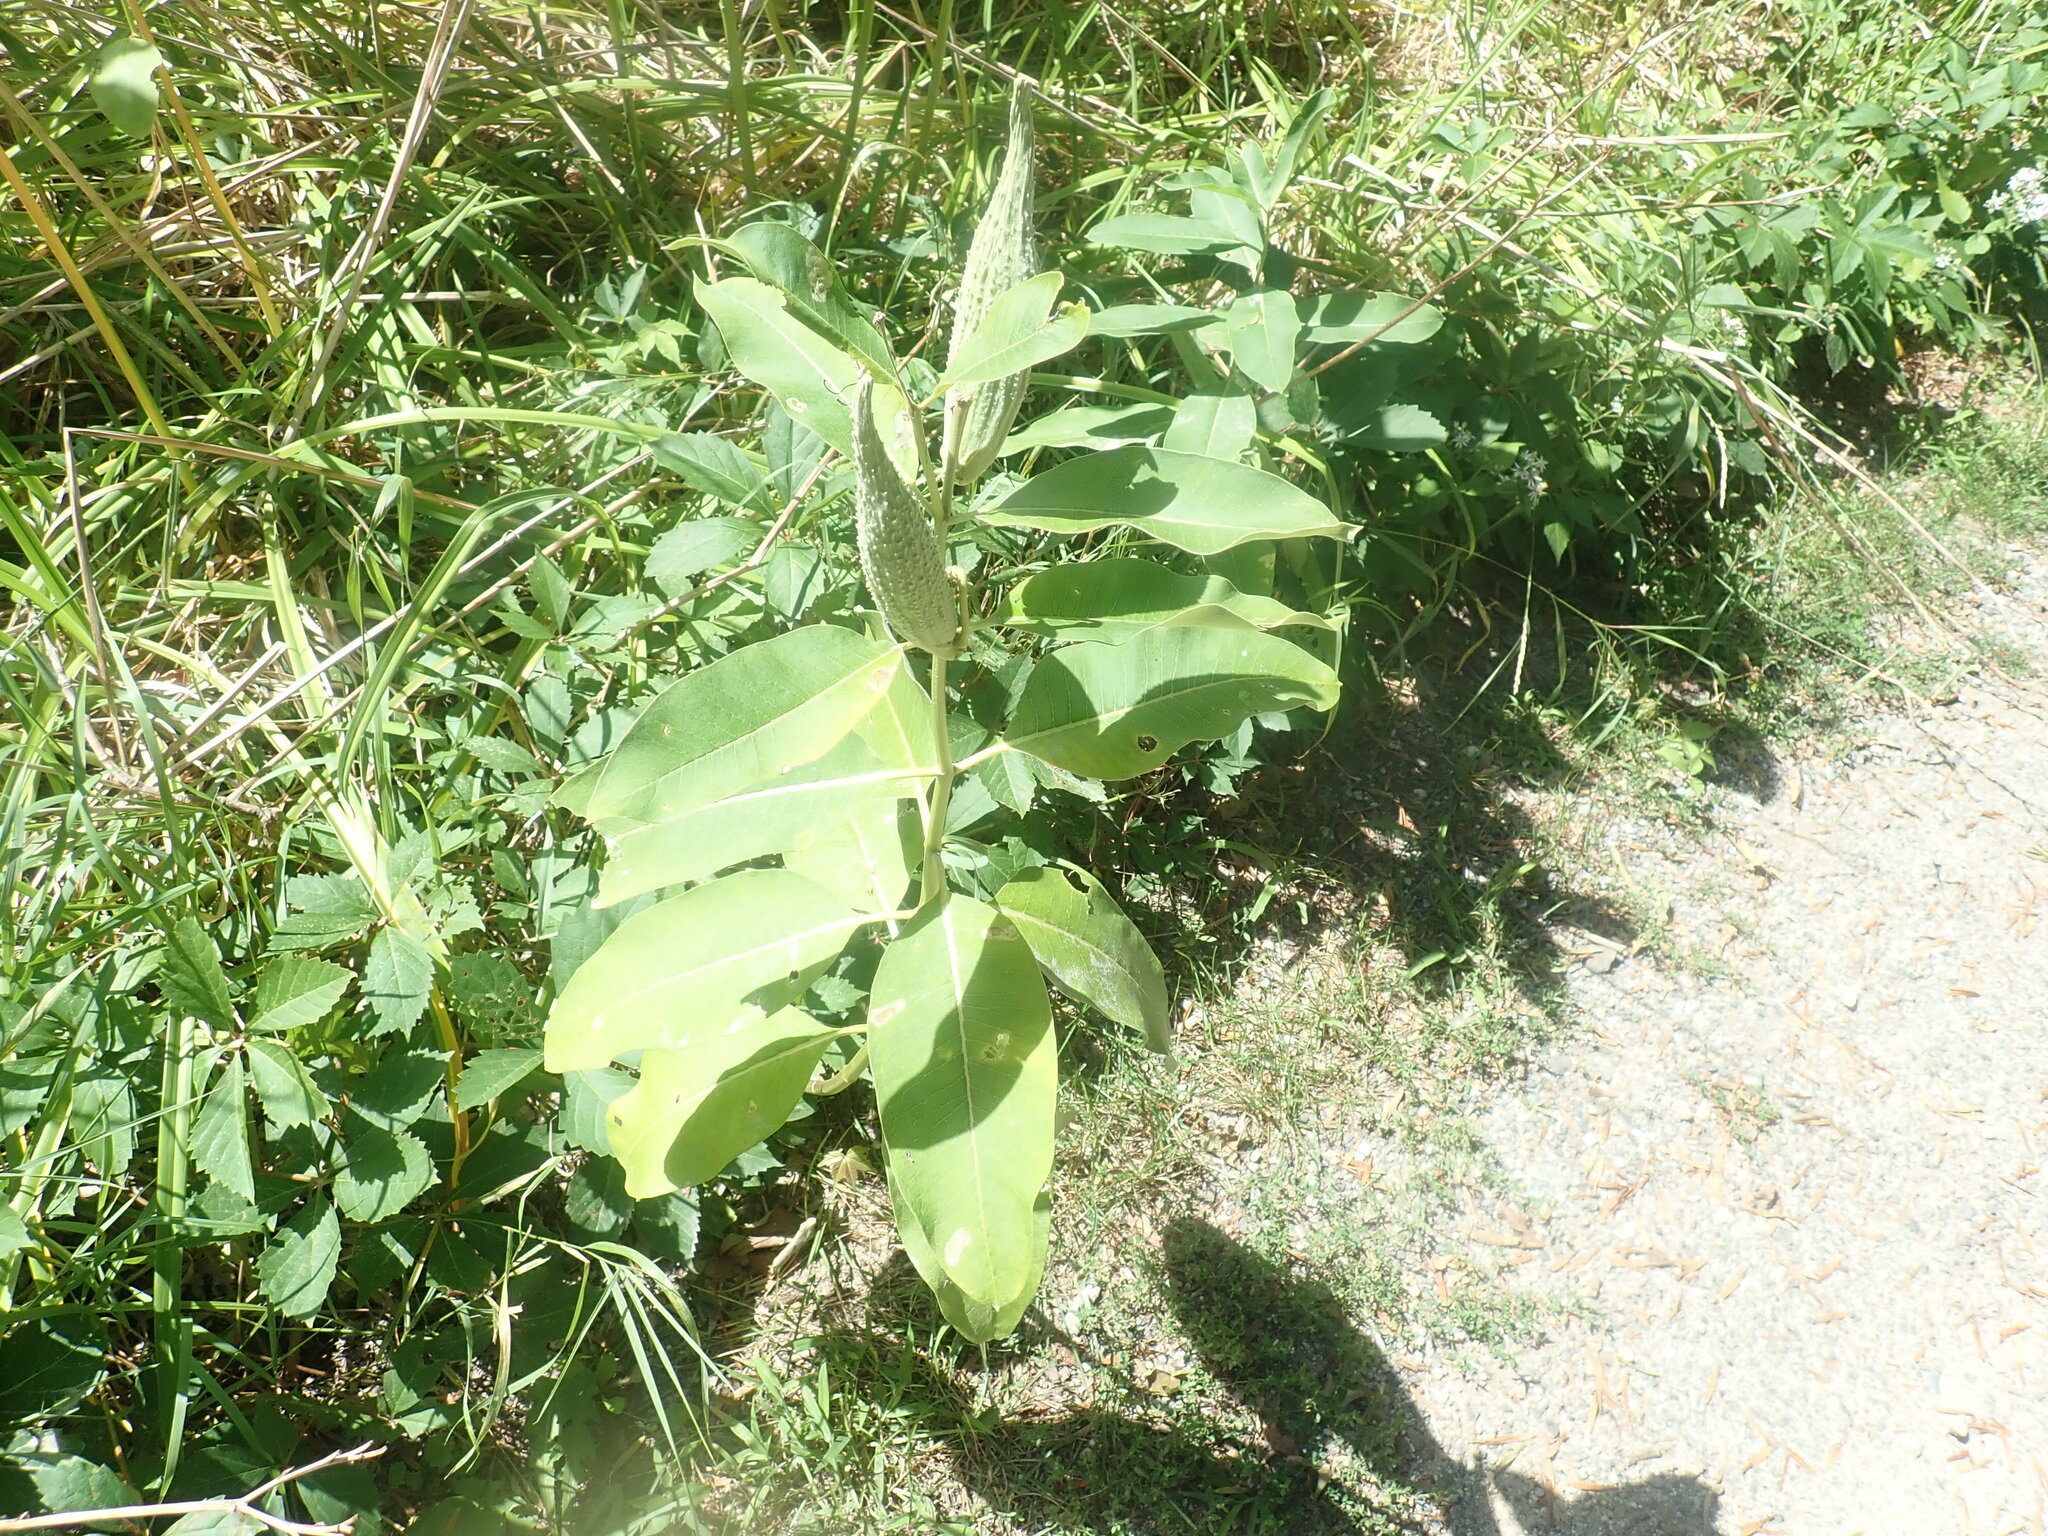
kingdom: Plantae
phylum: Tracheophyta
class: Magnoliopsida
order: Gentianales
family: Apocynaceae
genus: Asclepias
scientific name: Asclepias syriaca
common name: Common milkweed
